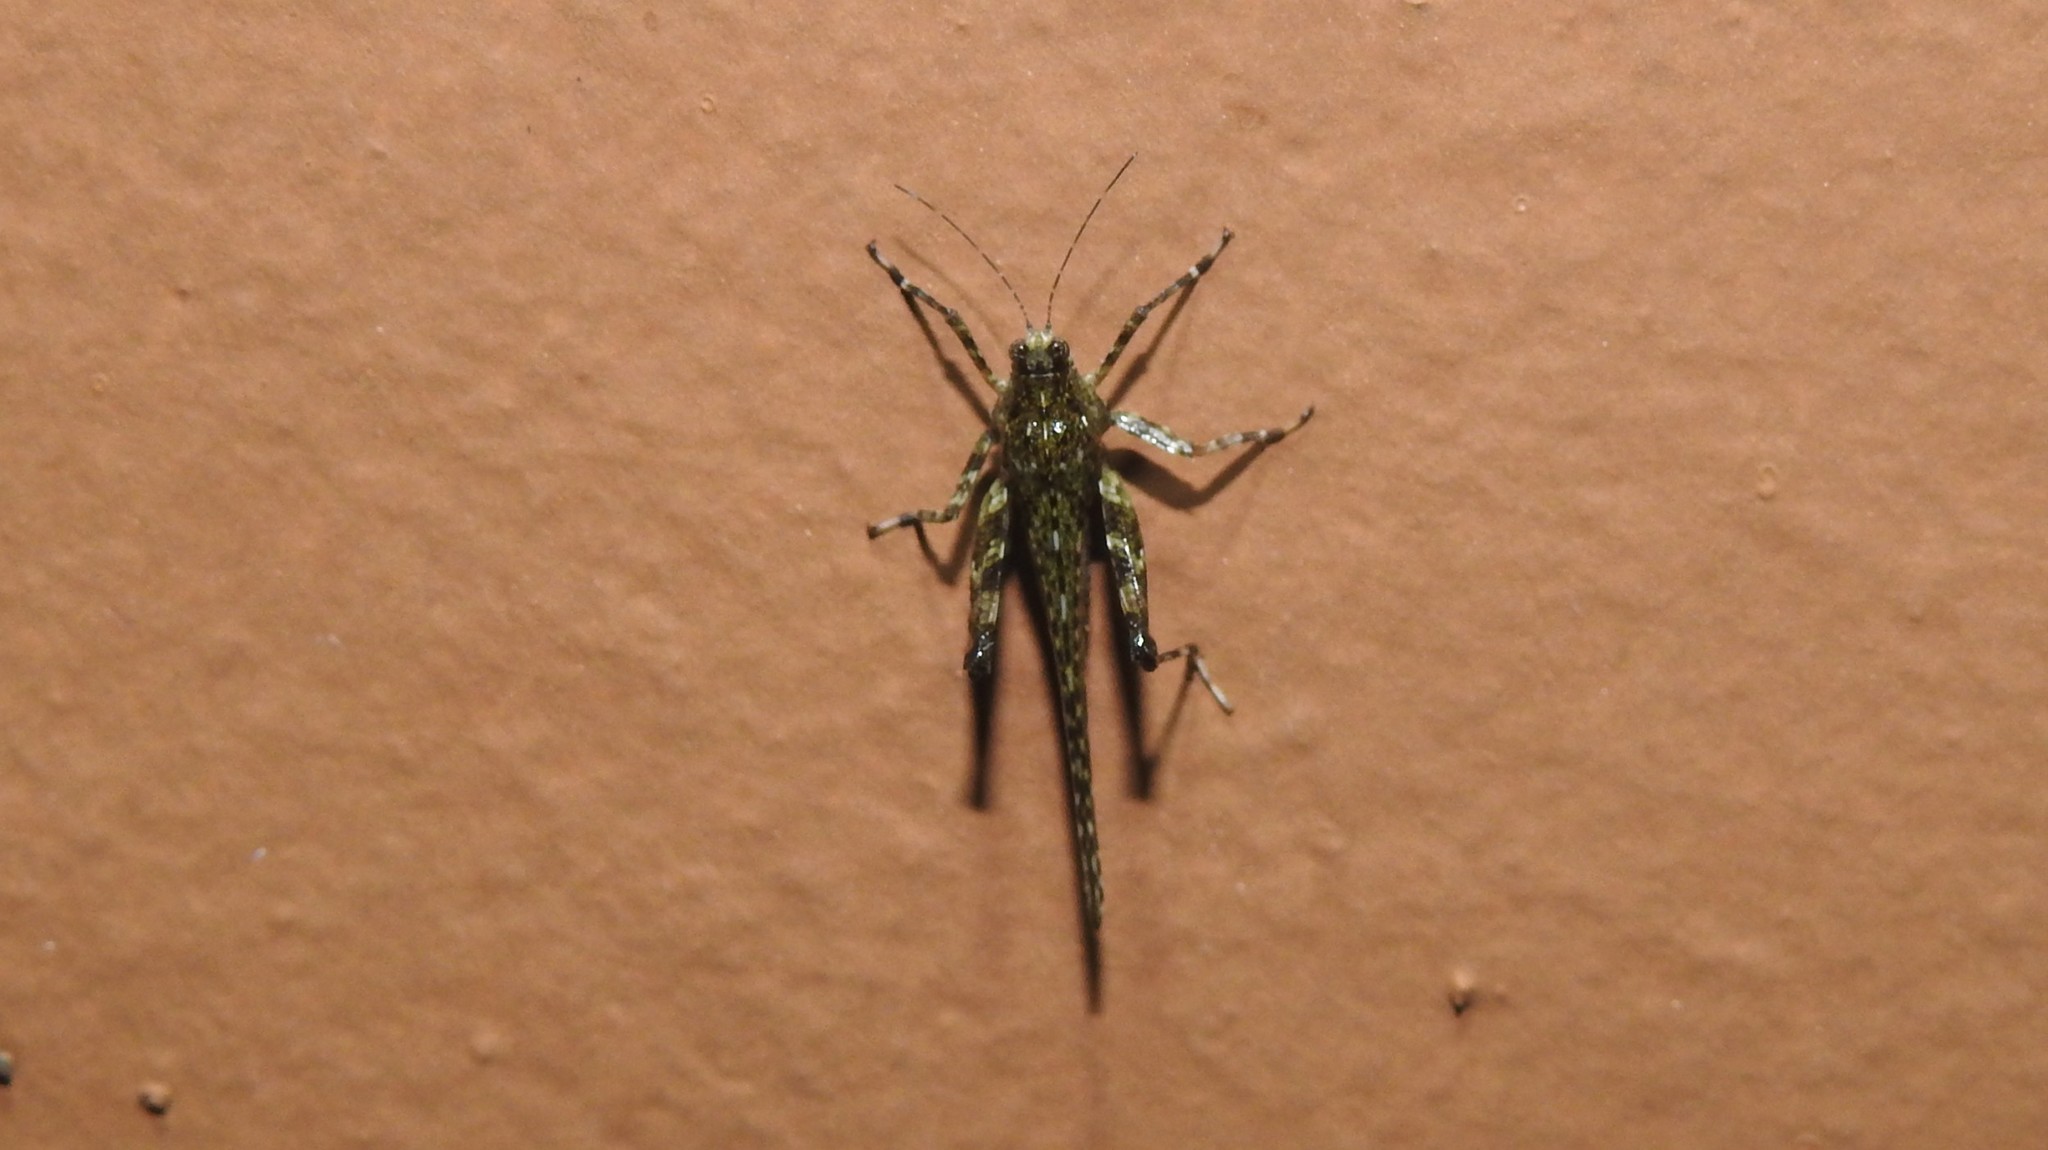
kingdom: Animalia
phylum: Arthropoda
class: Insecta
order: Orthoptera
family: Tetrigidae
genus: Xistrella
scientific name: Xistrella stylata
